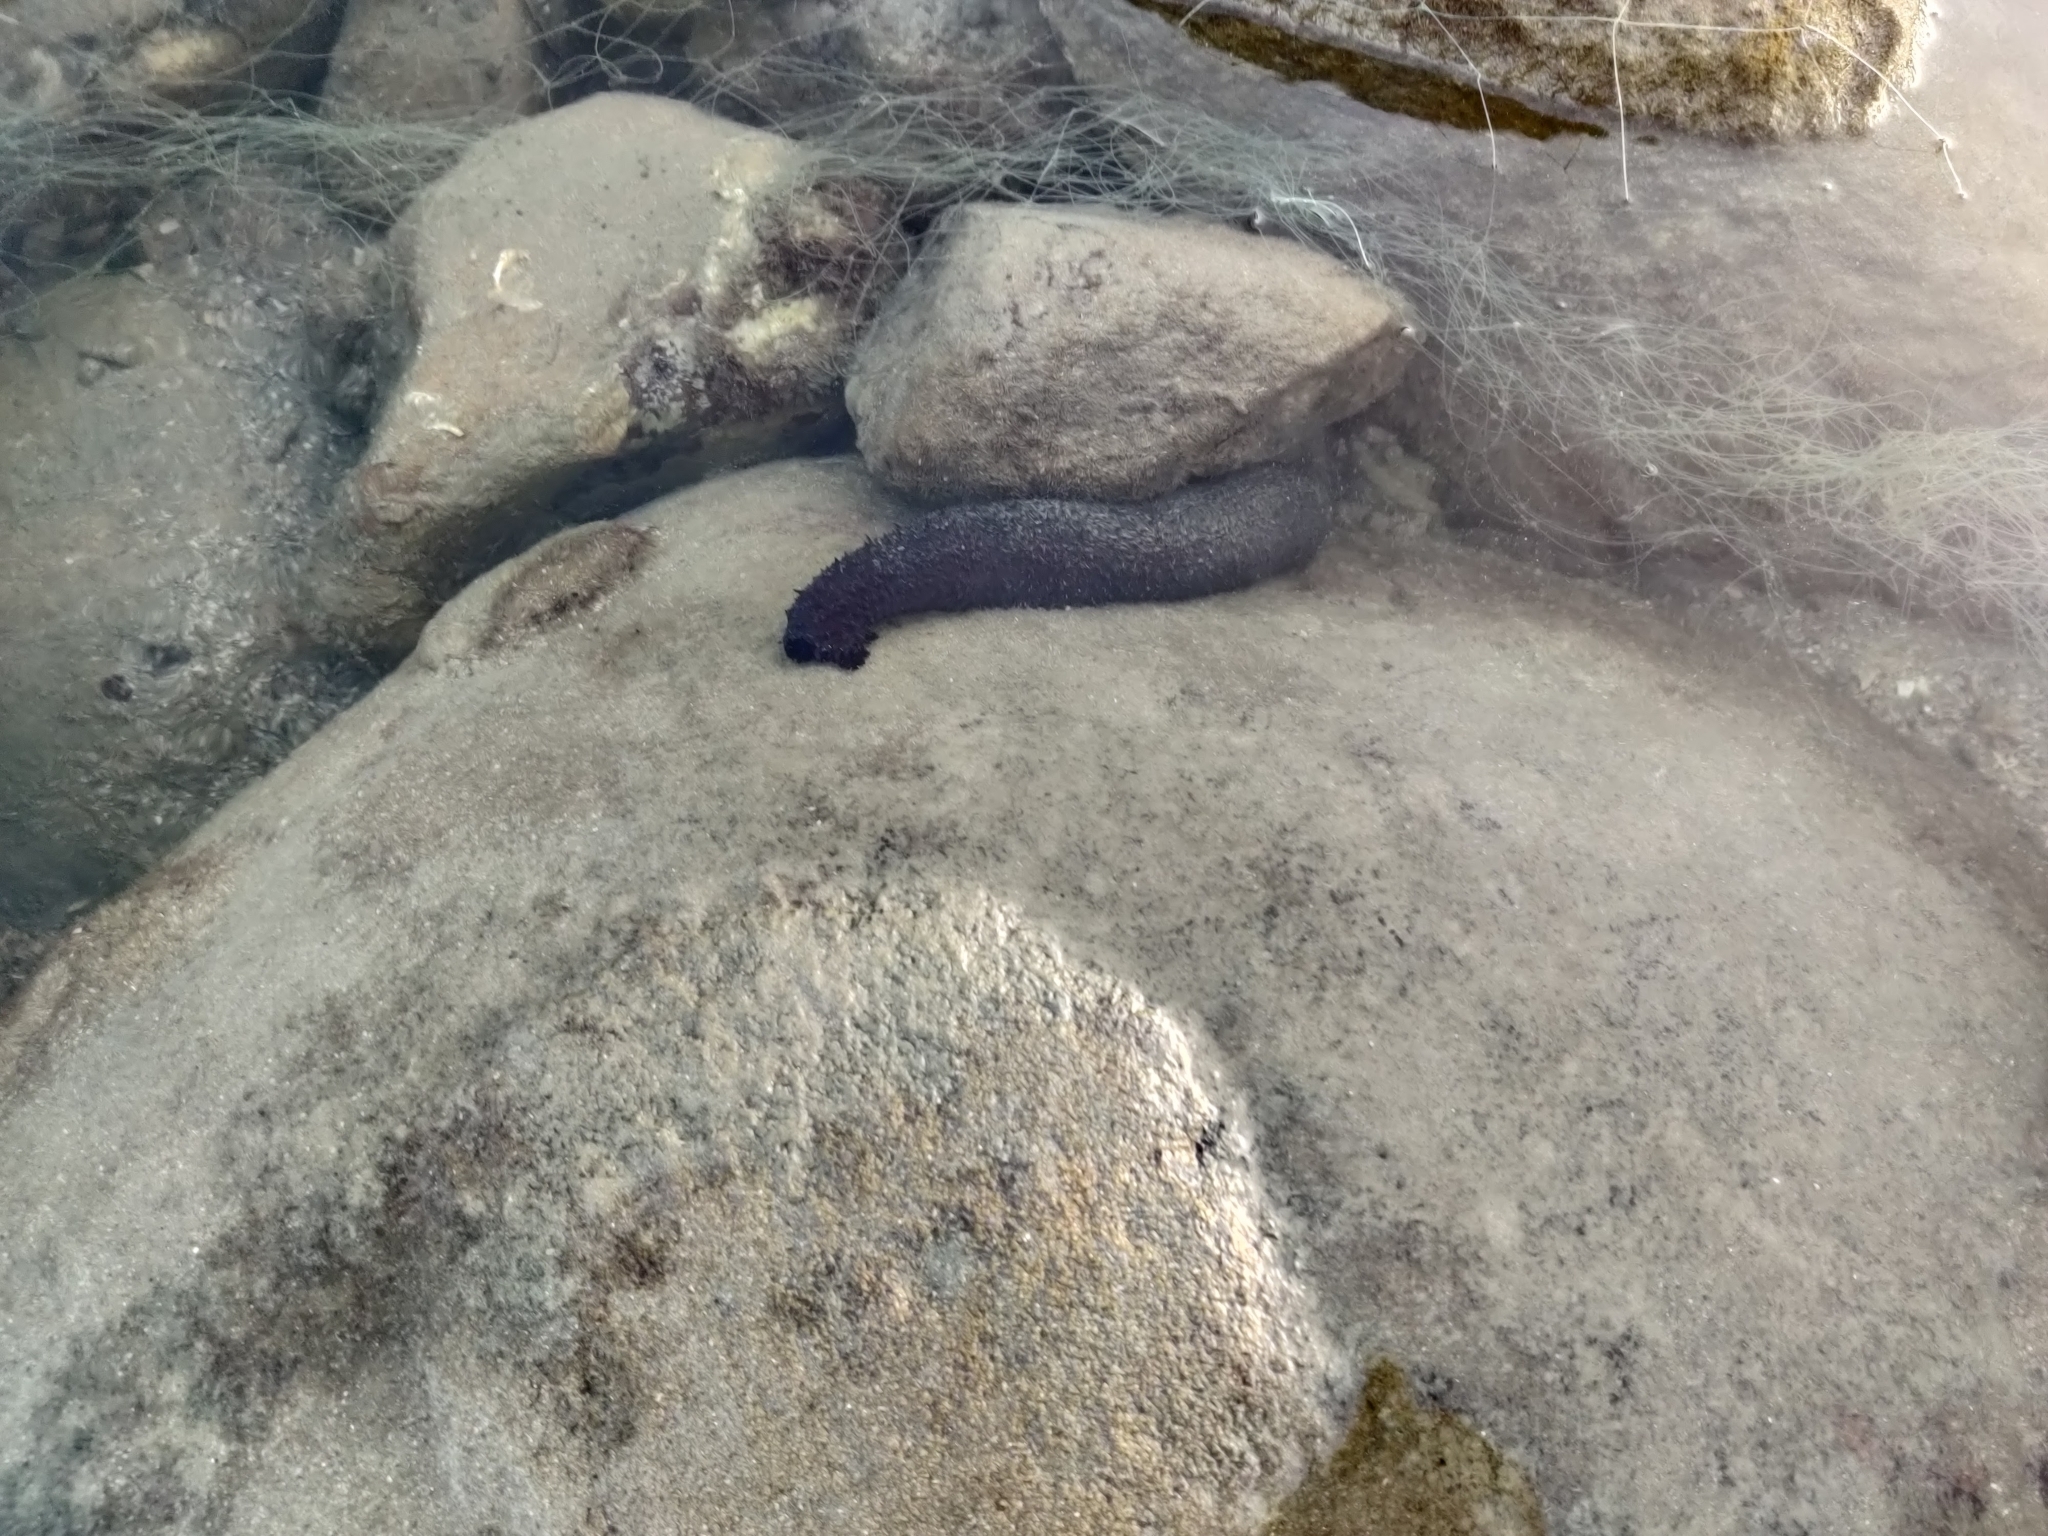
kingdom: Animalia
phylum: Echinodermata
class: Holothuroidea
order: Holothuriida
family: Holothuriidae
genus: Holothuria
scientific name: Holothuria leucospilota
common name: White thread fish
